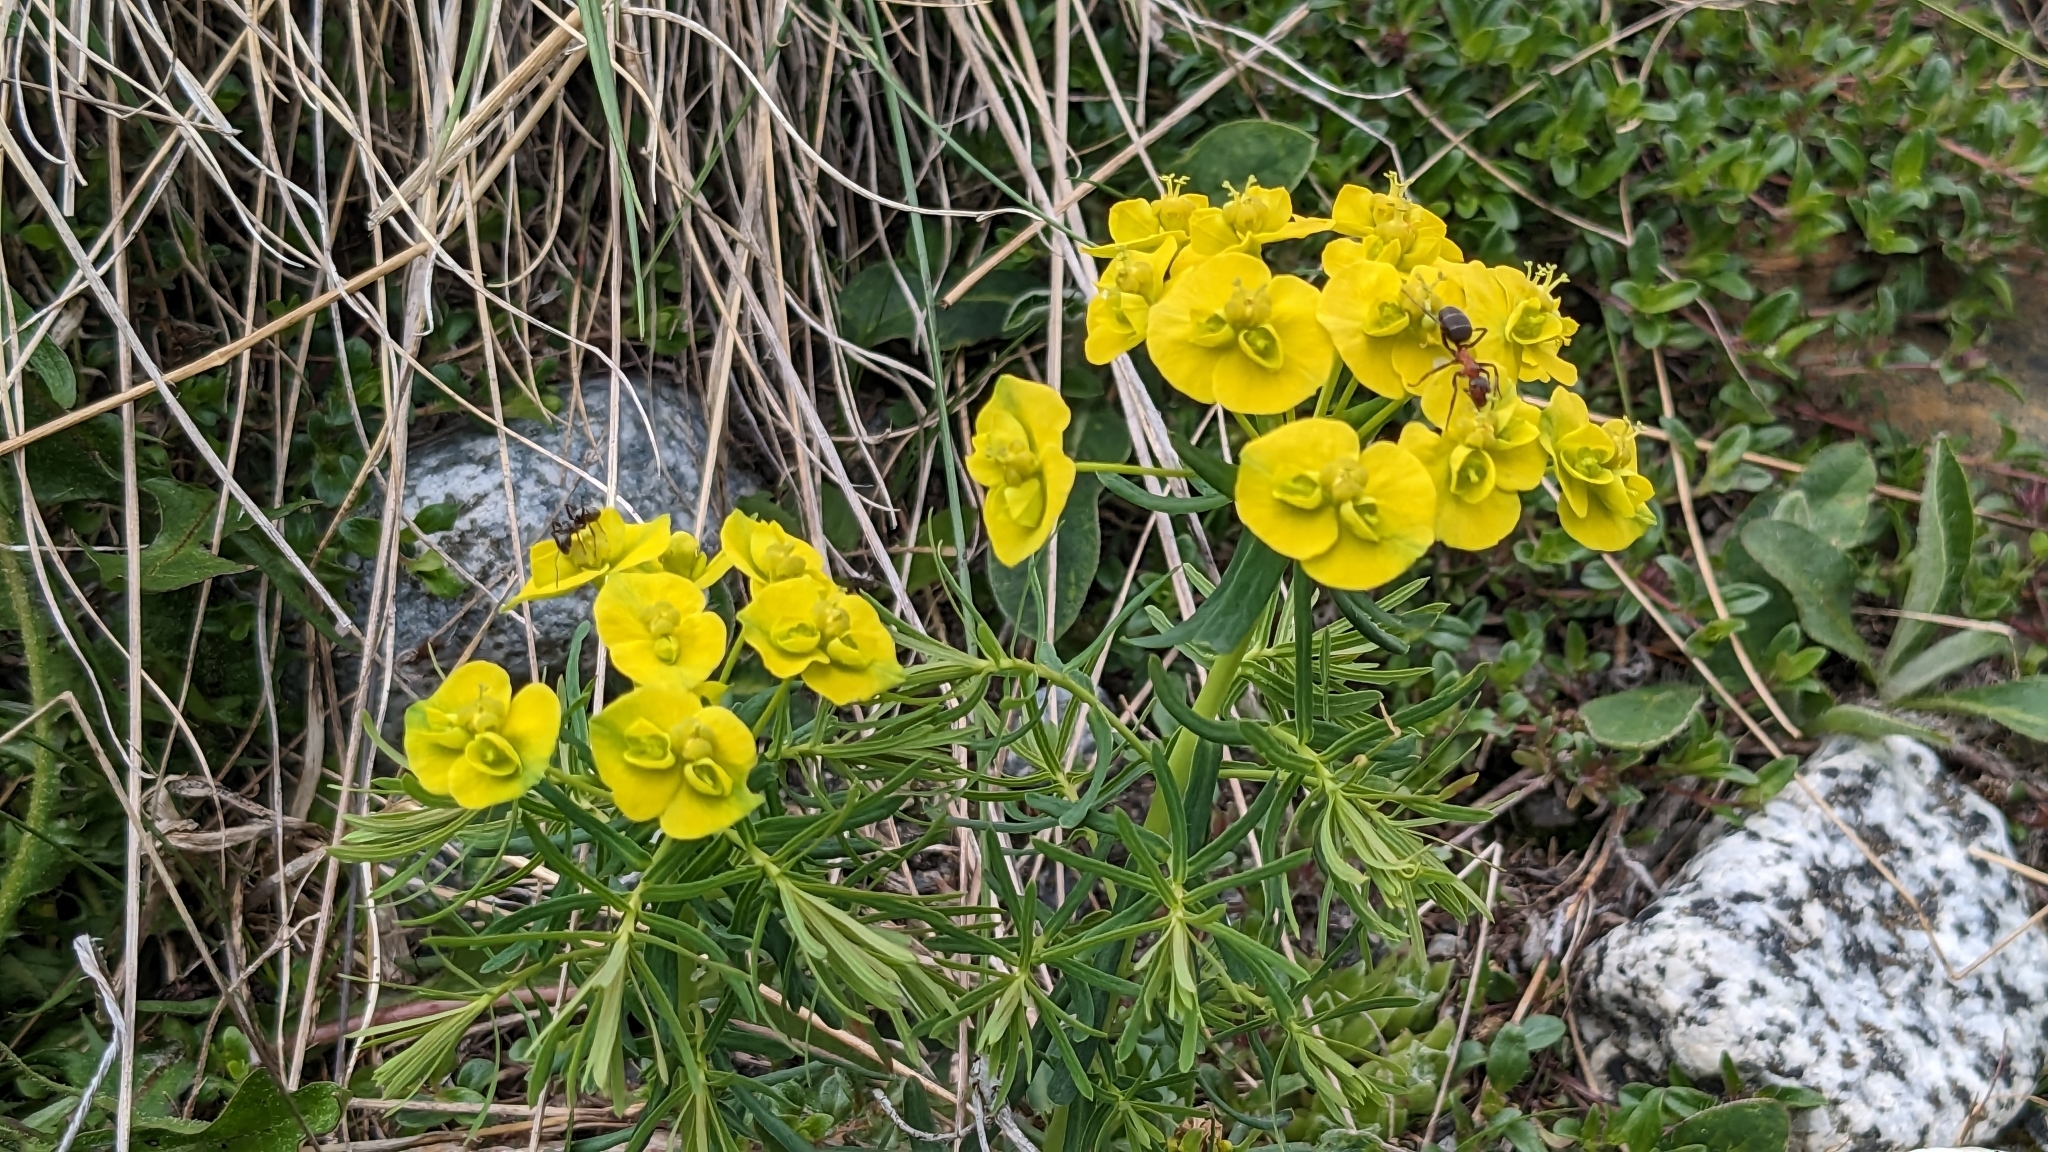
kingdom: Plantae
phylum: Tracheophyta
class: Magnoliopsida
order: Malpighiales
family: Euphorbiaceae
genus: Euphorbia
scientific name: Euphorbia cyparissias
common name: Cypress spurge
